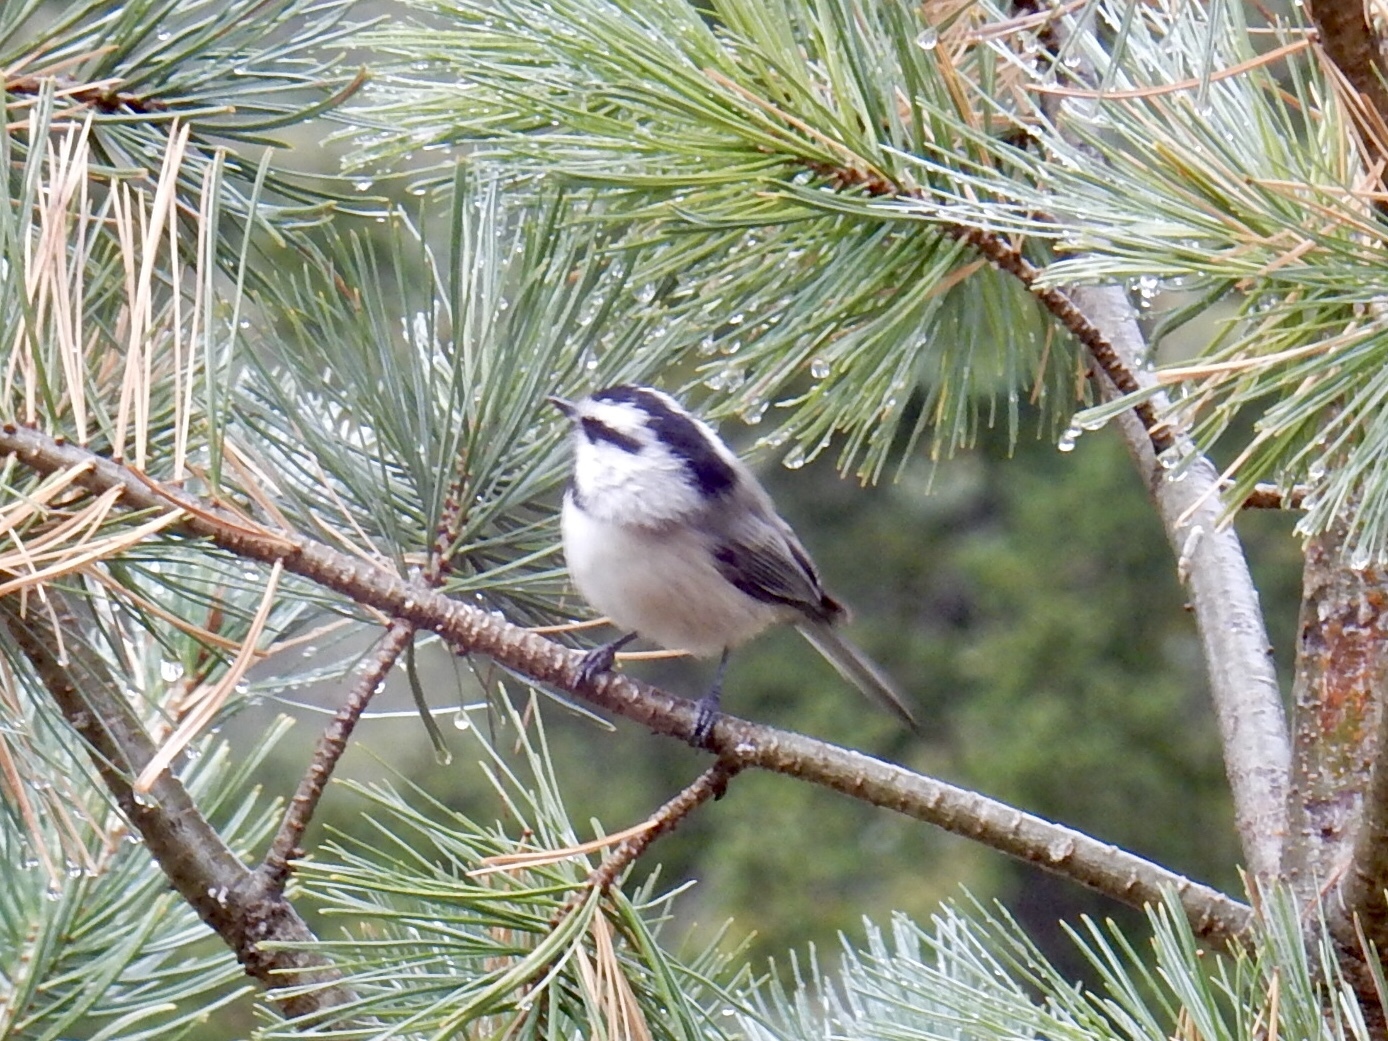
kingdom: Animalia
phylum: Chordata
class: Aves
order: Passeriformes
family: Paridae
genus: Poecile
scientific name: Poecile gambeli
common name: Mountain chickadee
